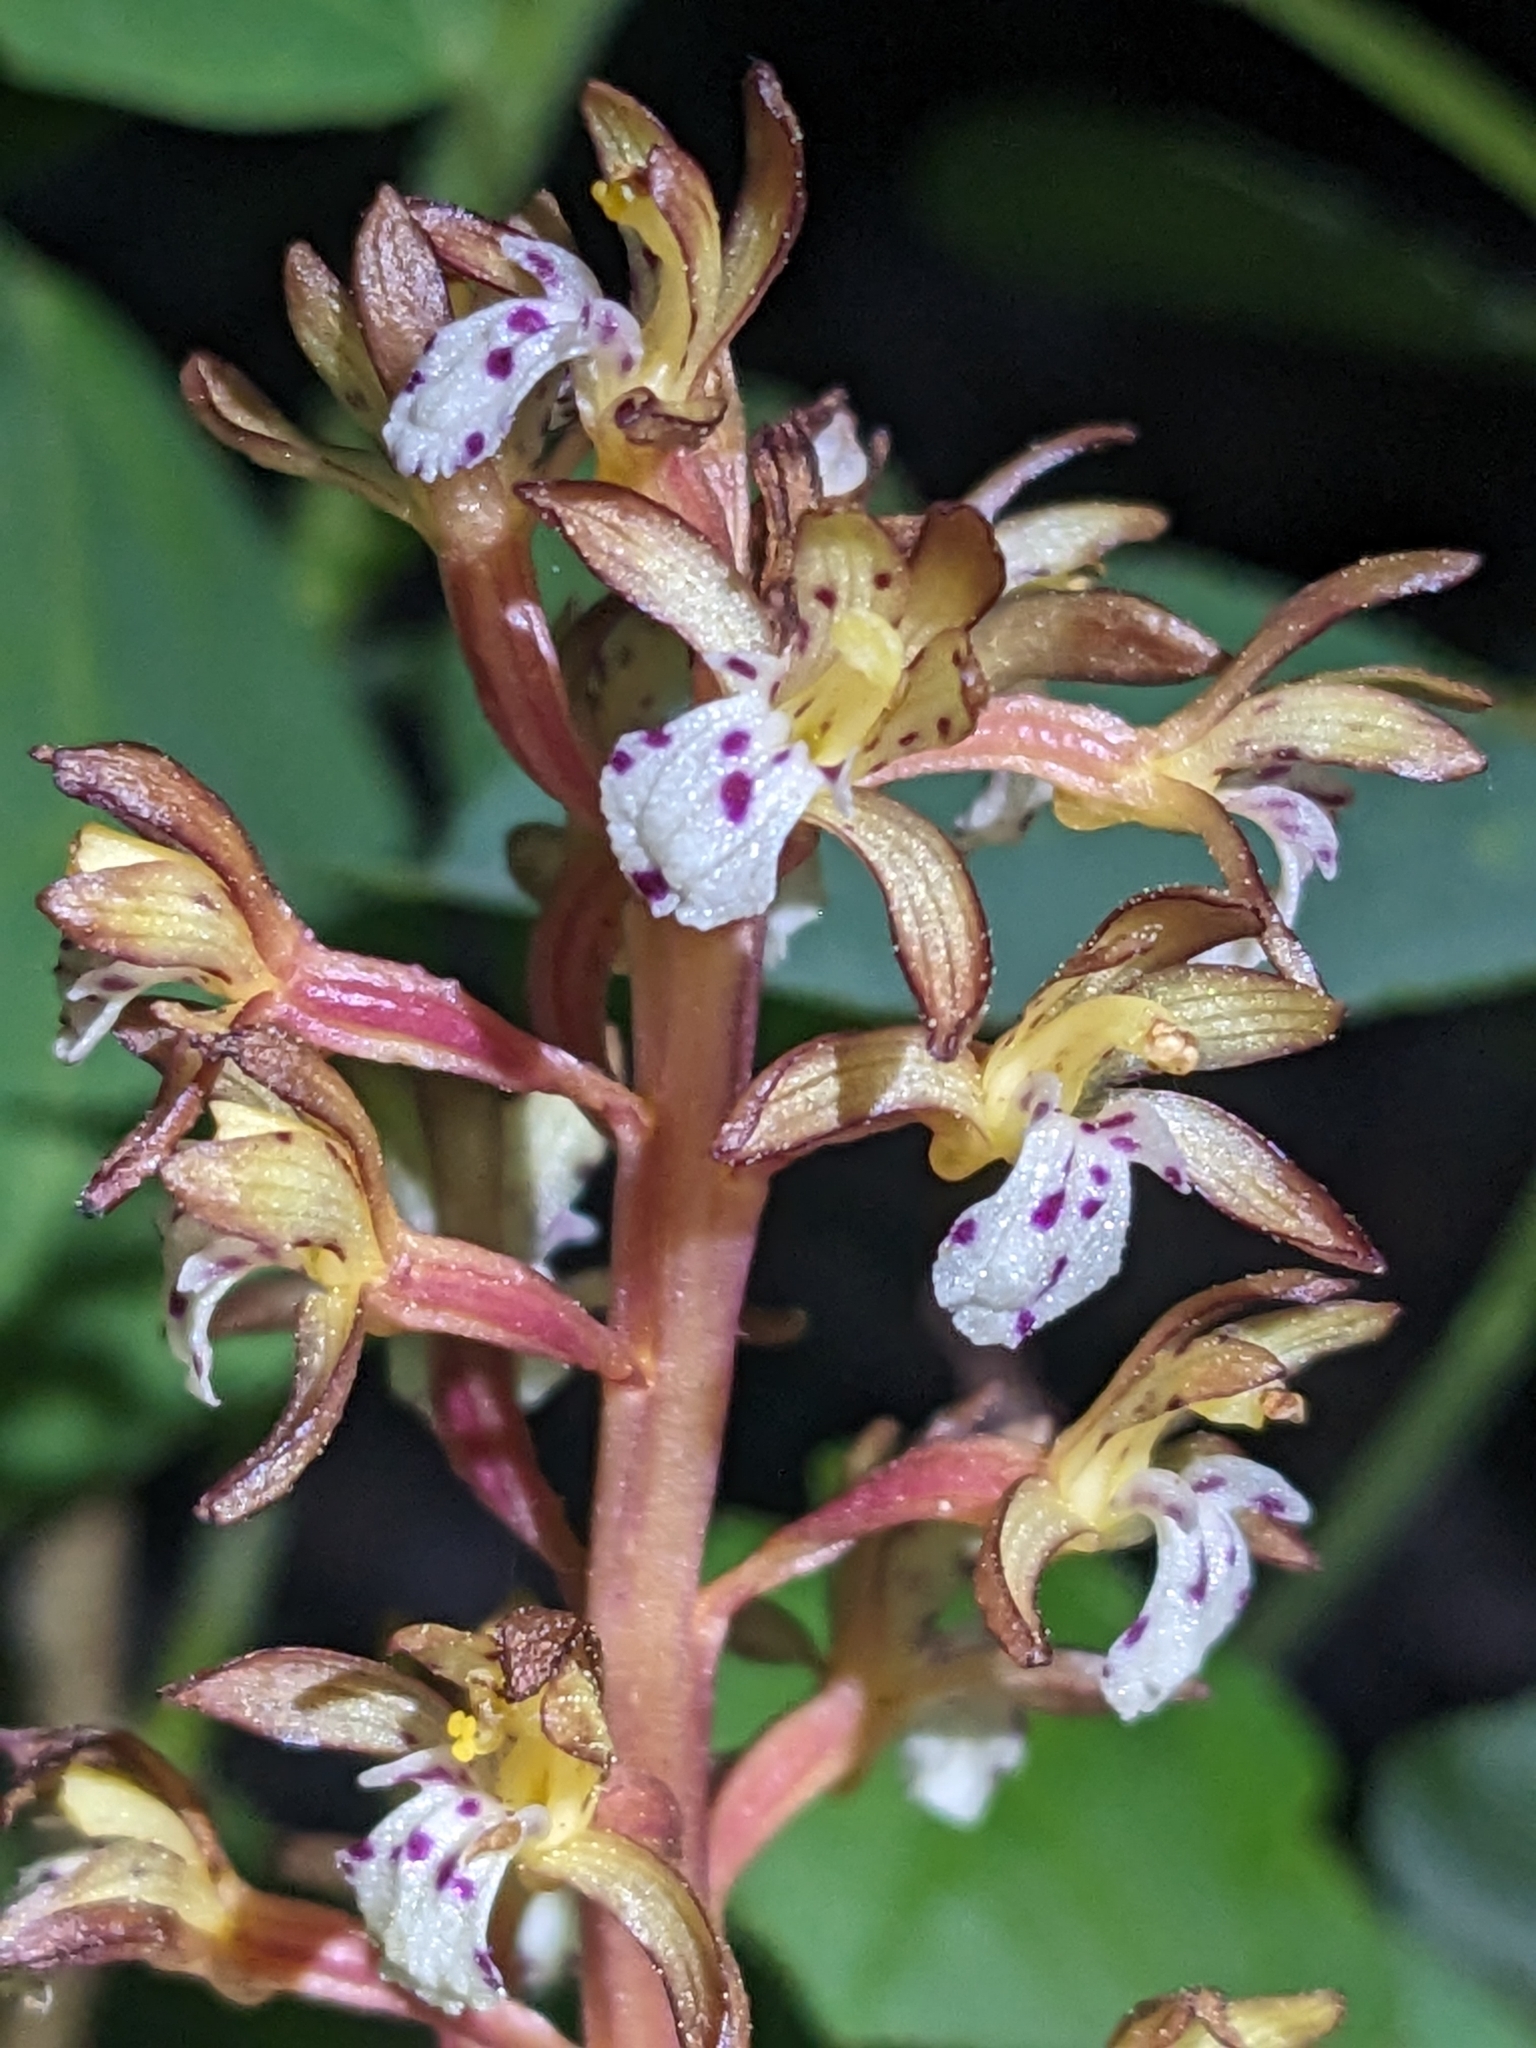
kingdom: Plantae
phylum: Tracheophyta
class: Liliopsida
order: Asparagales
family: Orchidaceae
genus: Corallorhiza
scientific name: Corallorhiza maculata
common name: Spotted coralroot
